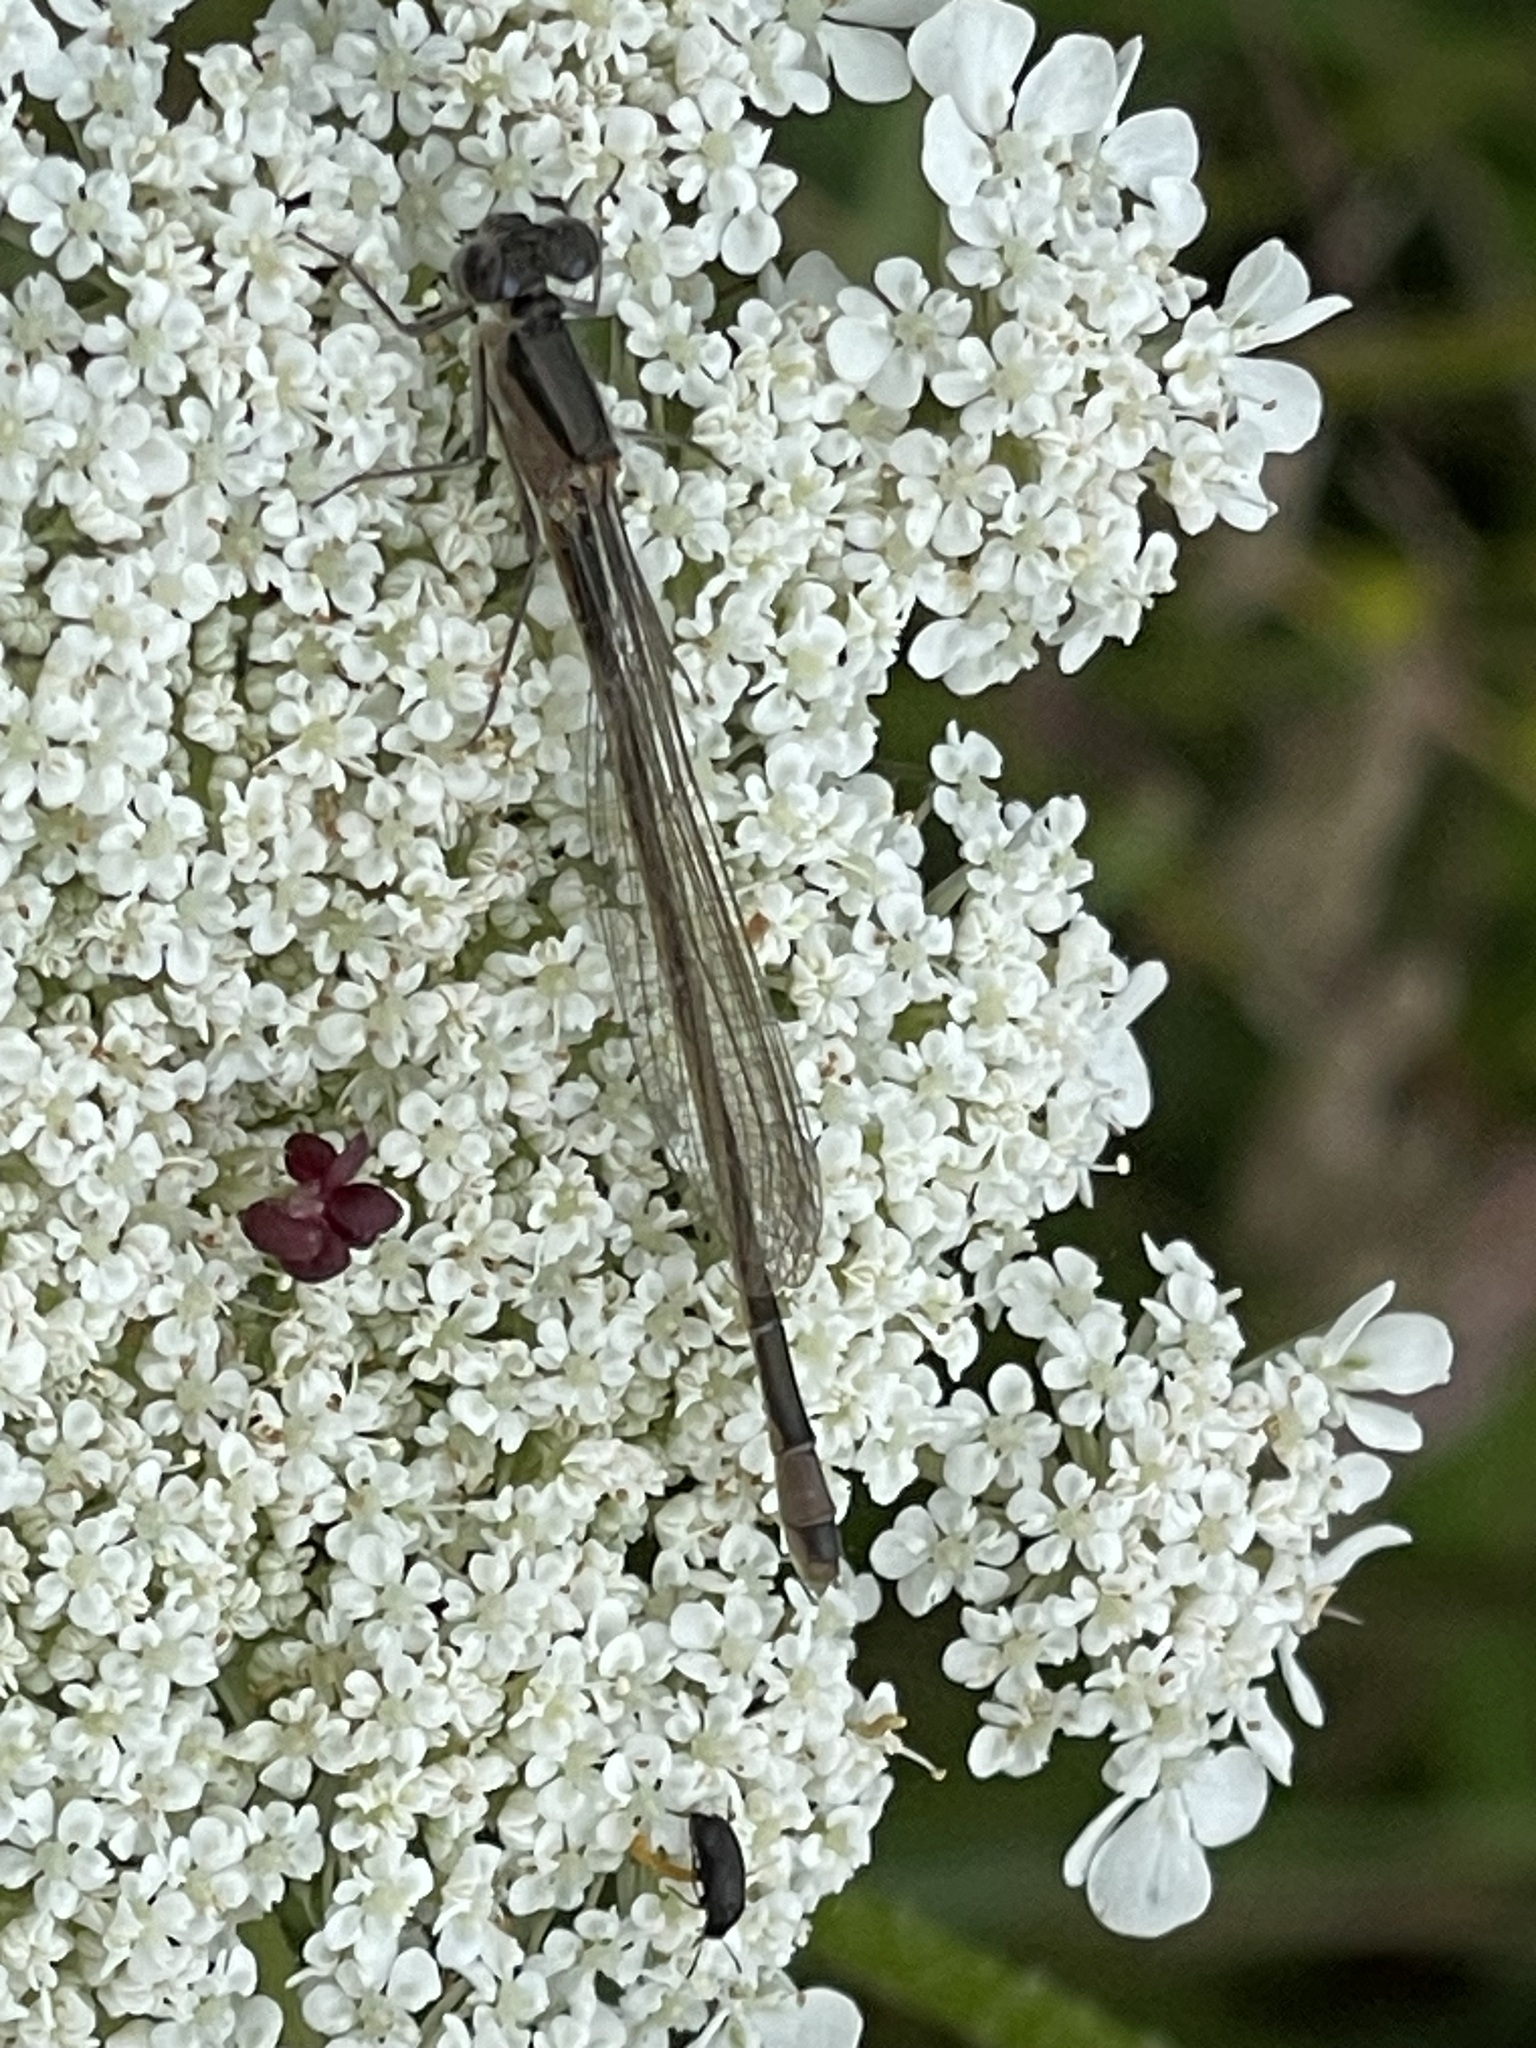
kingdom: Animalia
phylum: Arthropoda
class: Insecta
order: Odonata
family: Coenagrionidae
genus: Ischnura
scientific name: Ischnura elegans
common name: Blue-tailed damselfly
